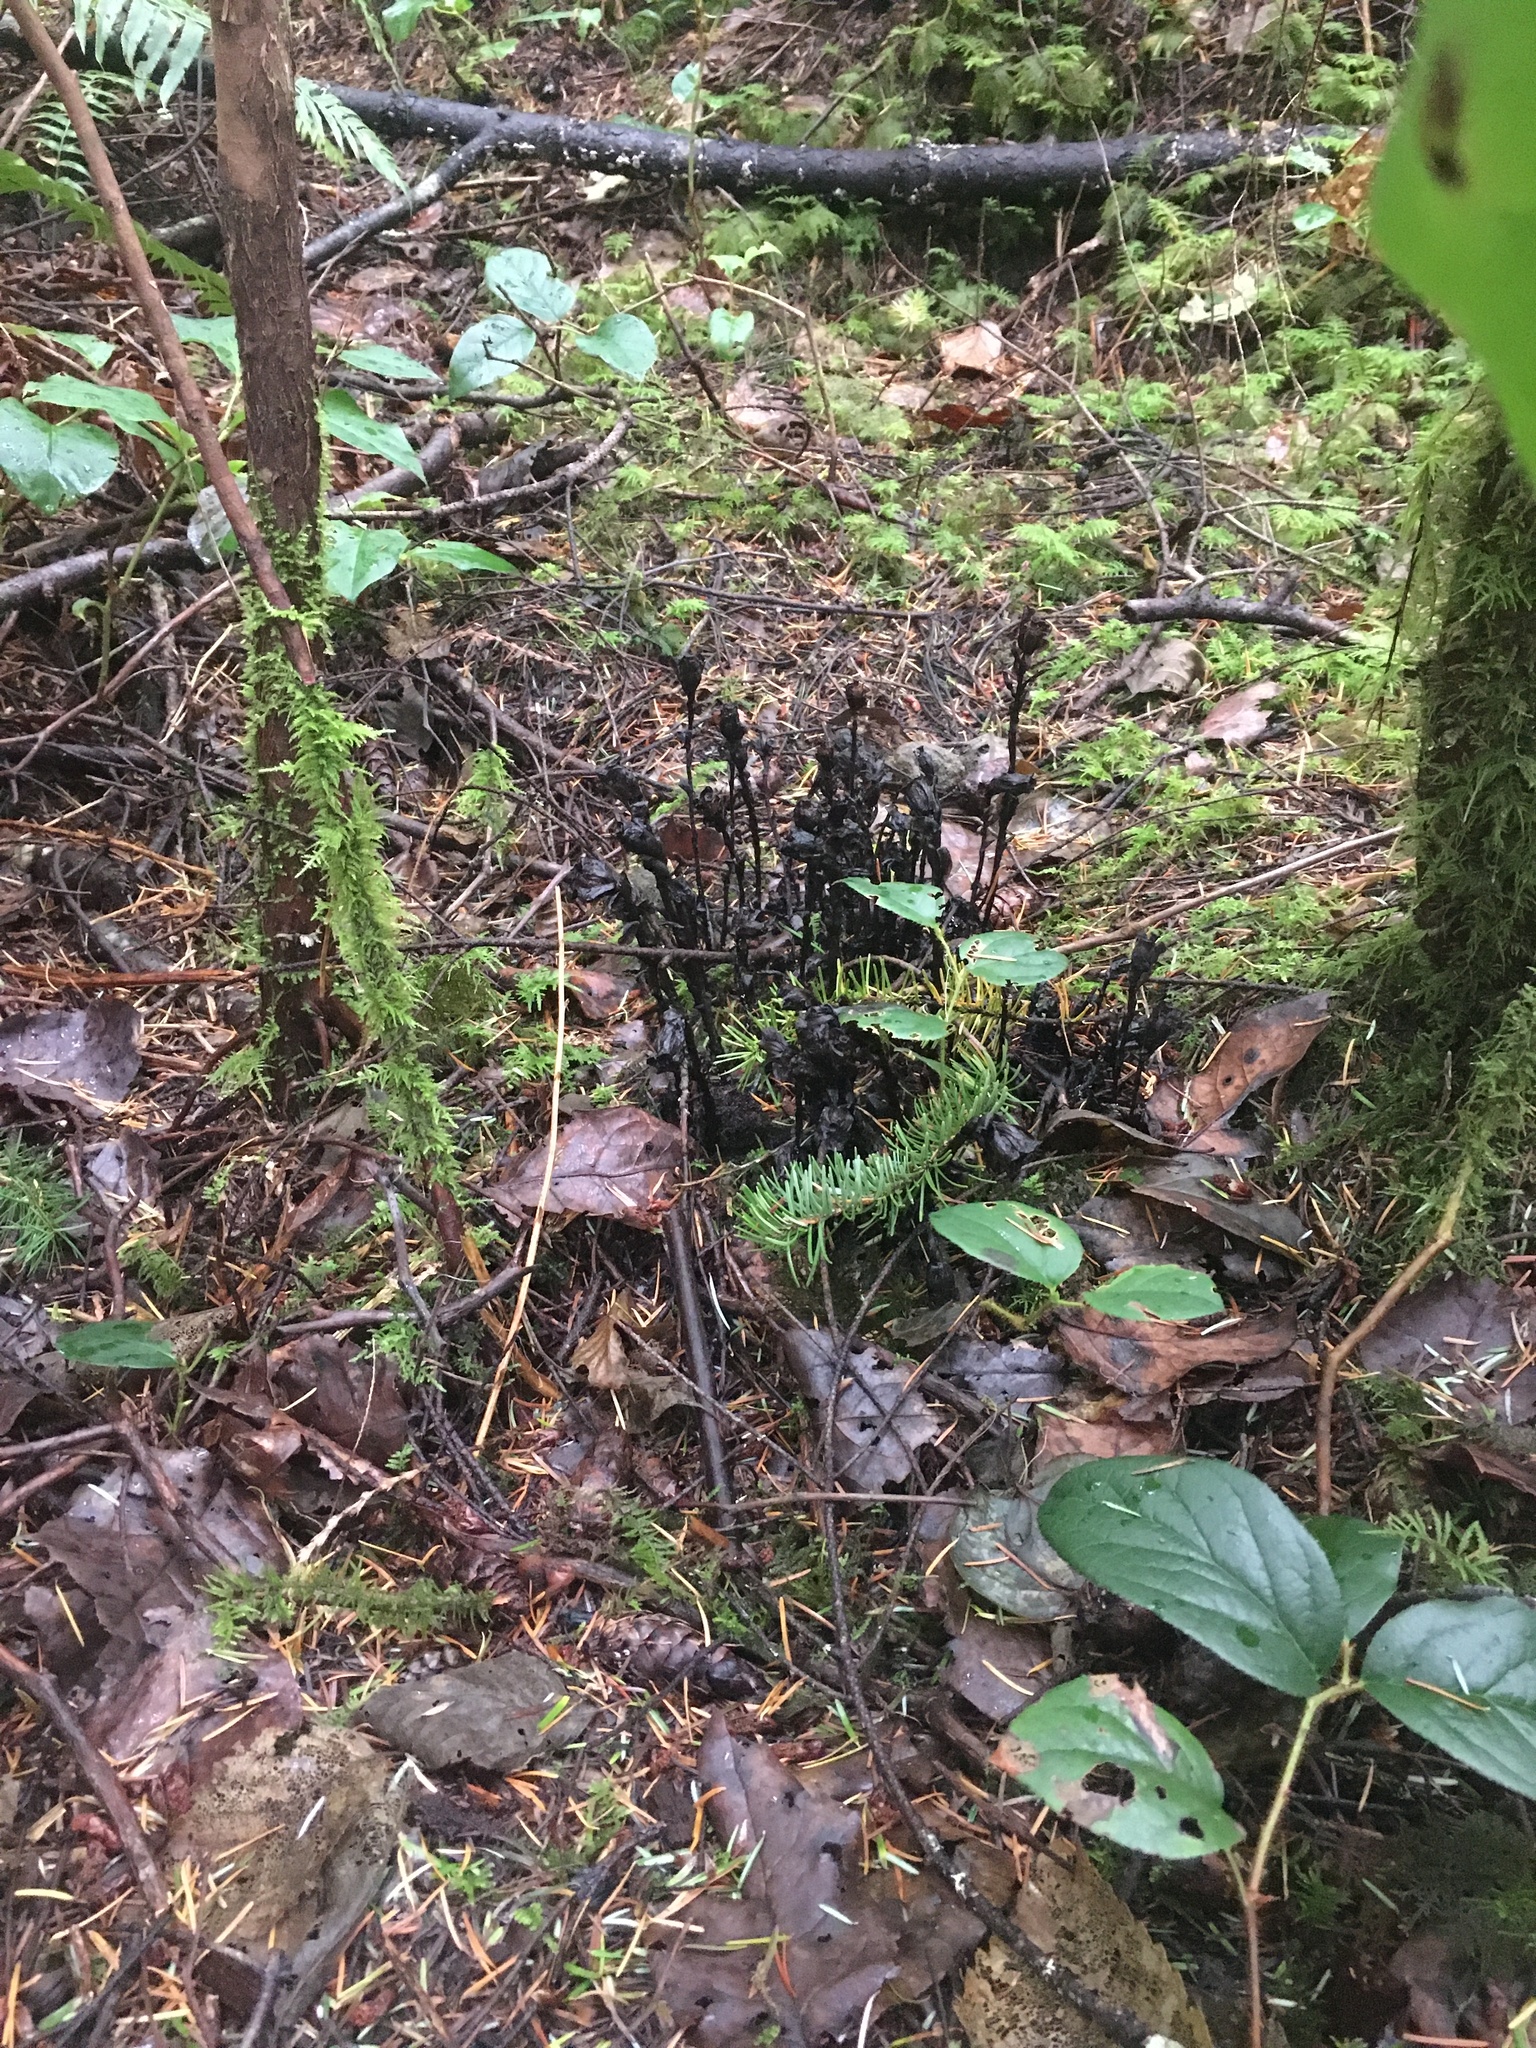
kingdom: Plantae
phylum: Tracheophyta
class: Magnoliopsida
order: Ericales
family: Ericaceae
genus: Monotropa
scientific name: Monotropa uniflora
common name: Convulsion root
